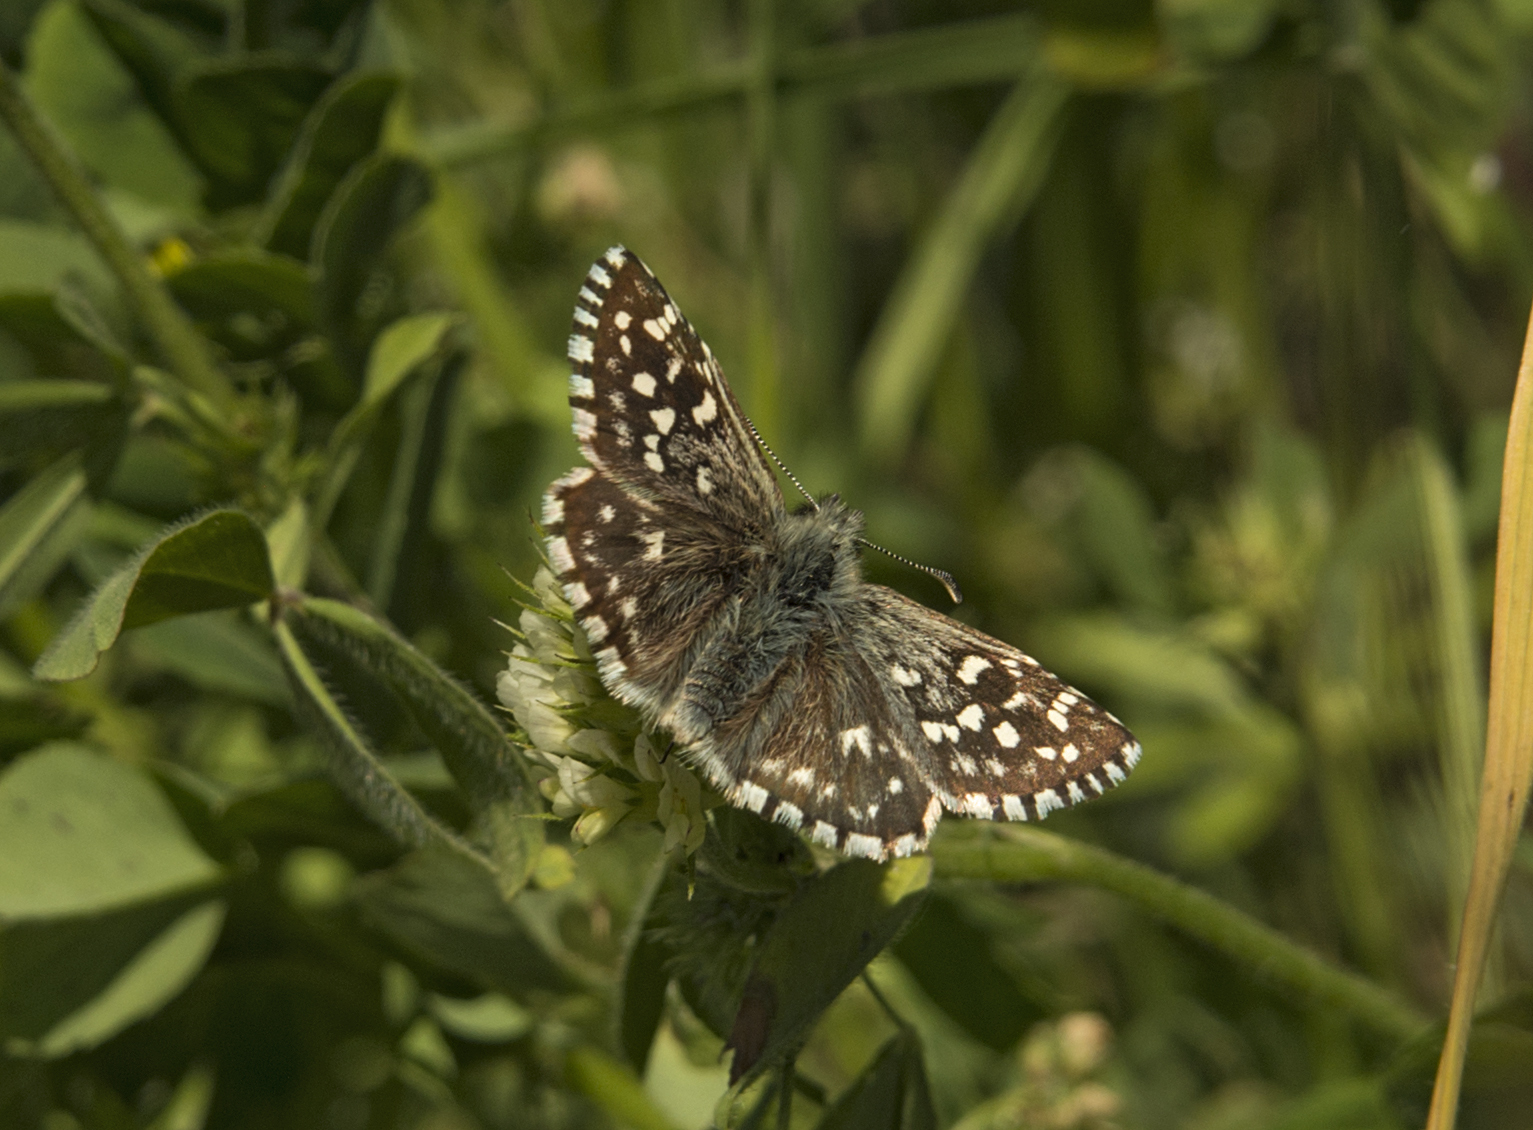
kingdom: Animalia
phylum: Arthropoda
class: Insecta
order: Lepidoptera
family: Hesperiidae
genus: Pyrgus
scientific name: Pyrgus malvae
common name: Grizzled skipper
